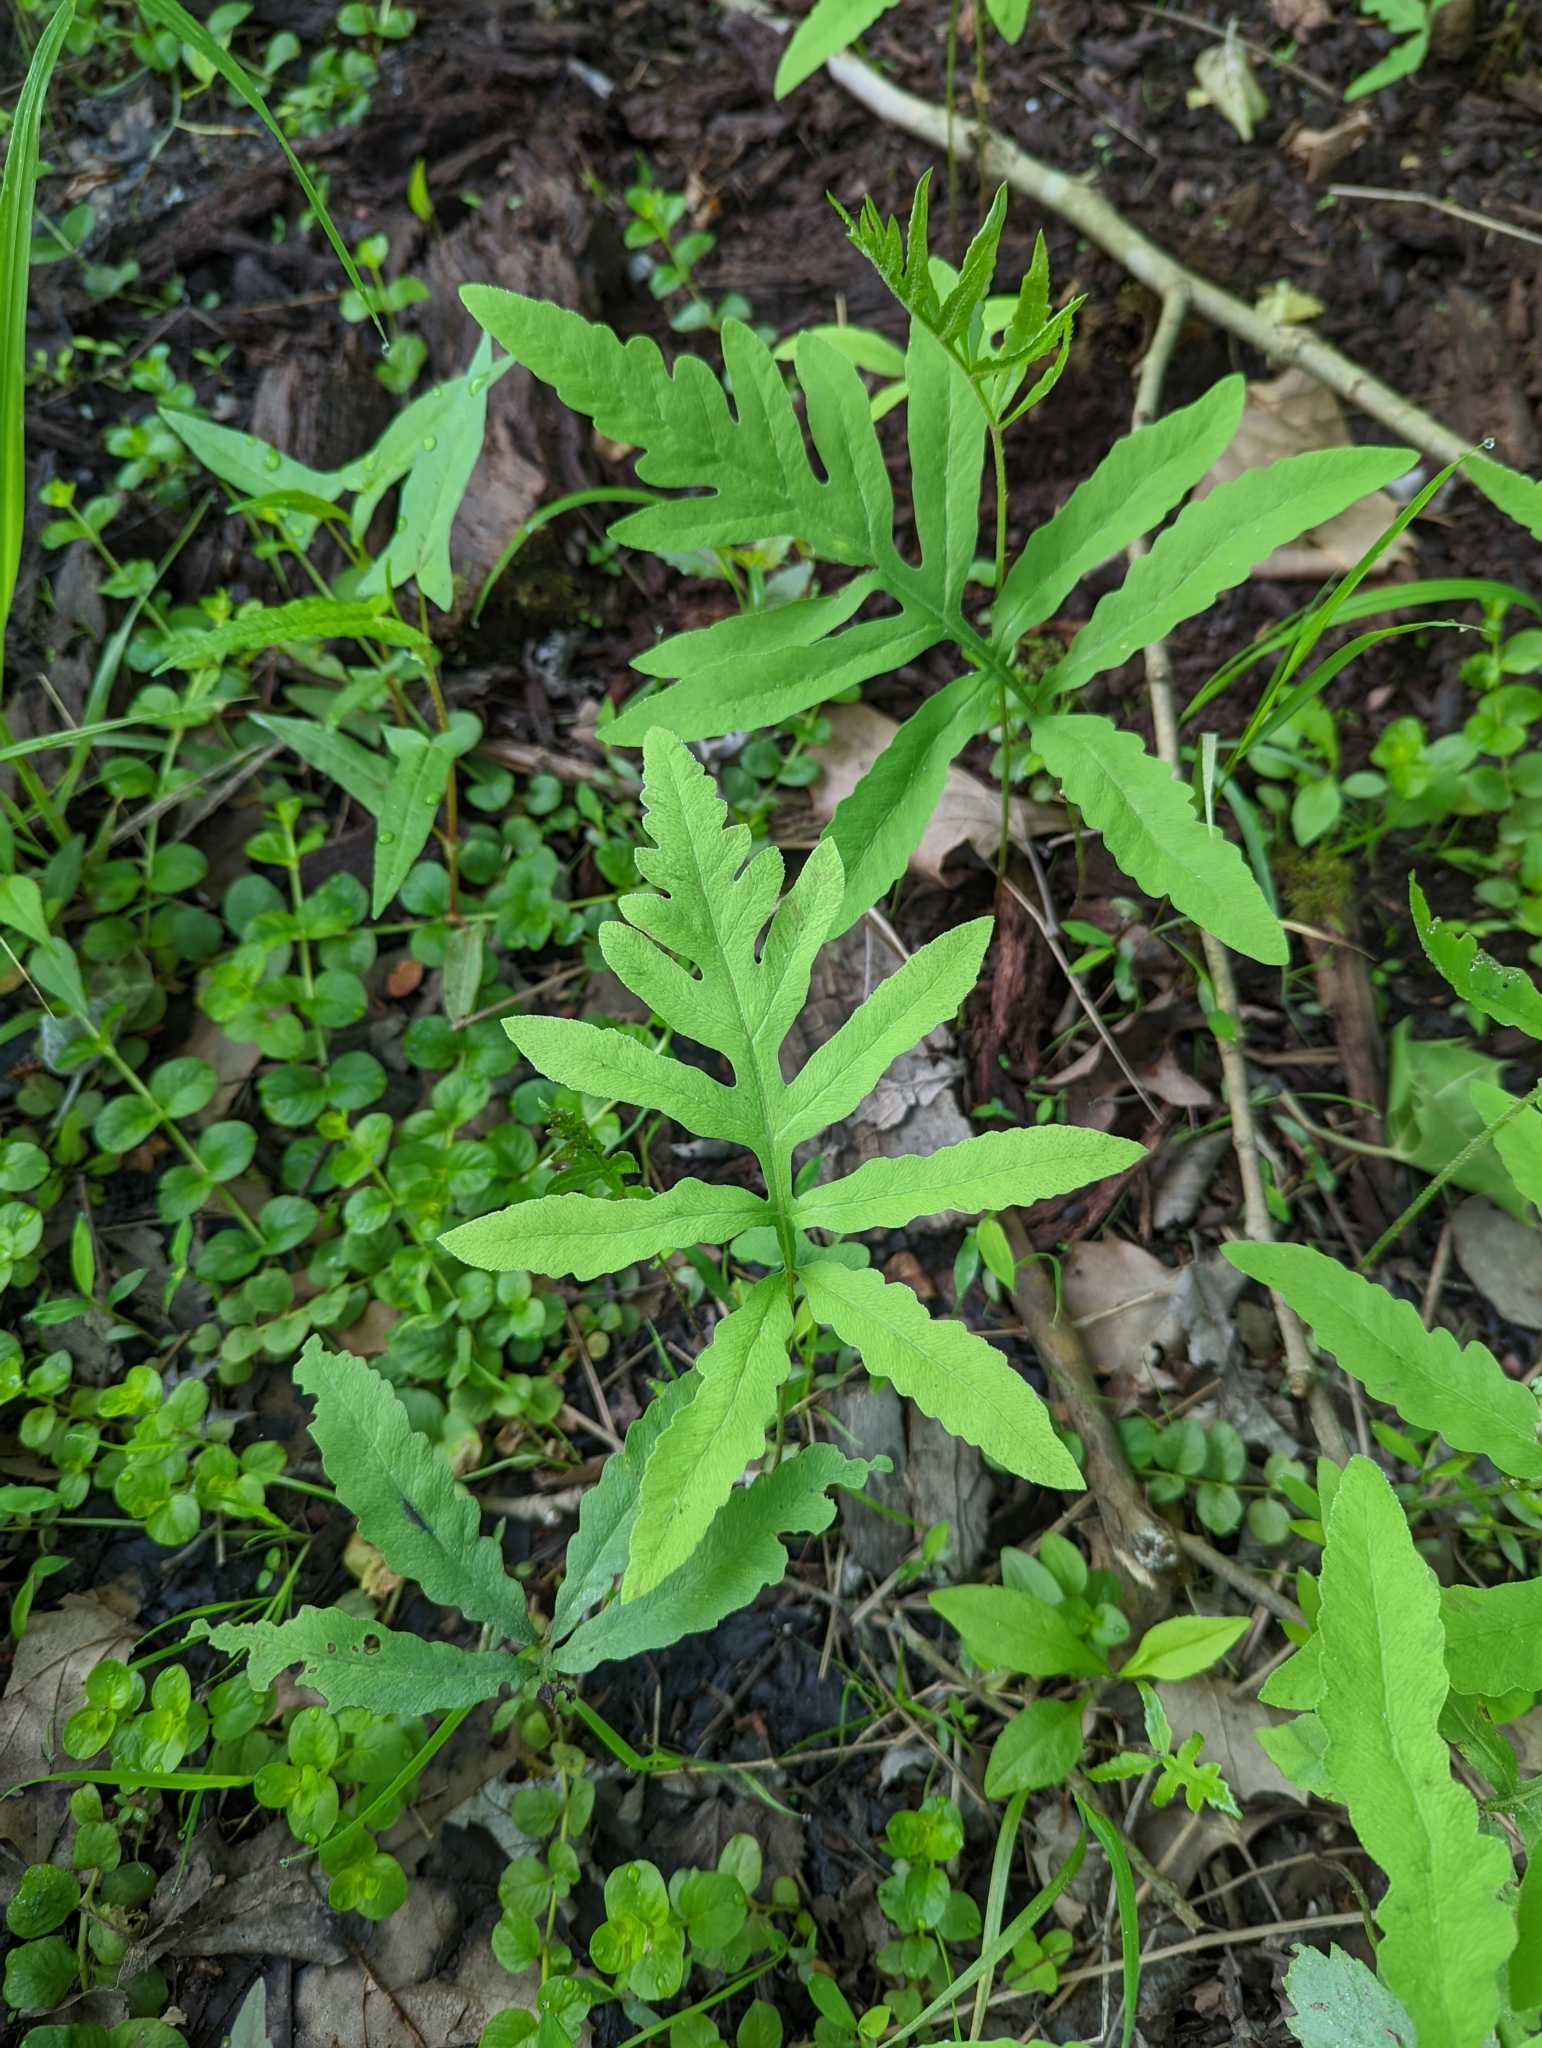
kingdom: Plantae
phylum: Tracheophyta
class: Polypodiopsida
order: Polypodiales
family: Onocleaceae
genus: Onoclea
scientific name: Onoclea sensibilis
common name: Sensitive fern
